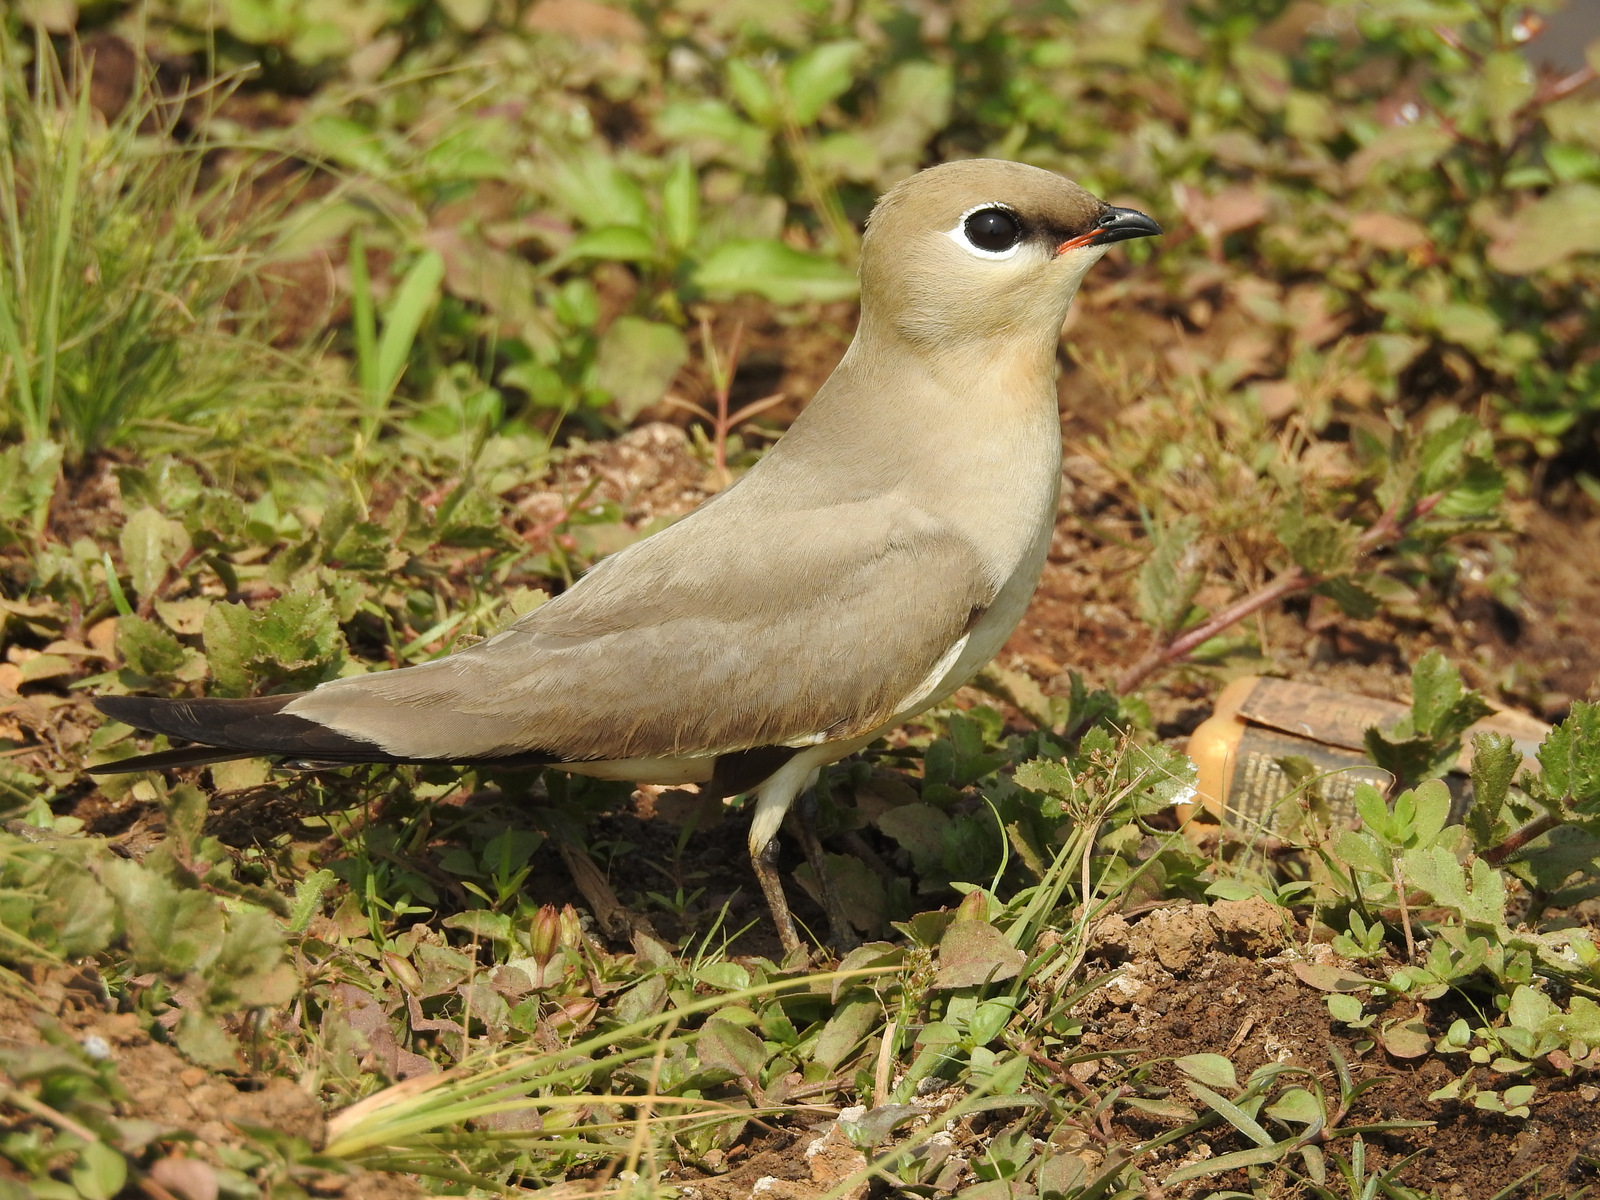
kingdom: Animalia
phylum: Chordata
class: Aves
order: Charadriiformes
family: Glareolidae
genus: Glareola
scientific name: Glareola lactea
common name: Small pratincole
